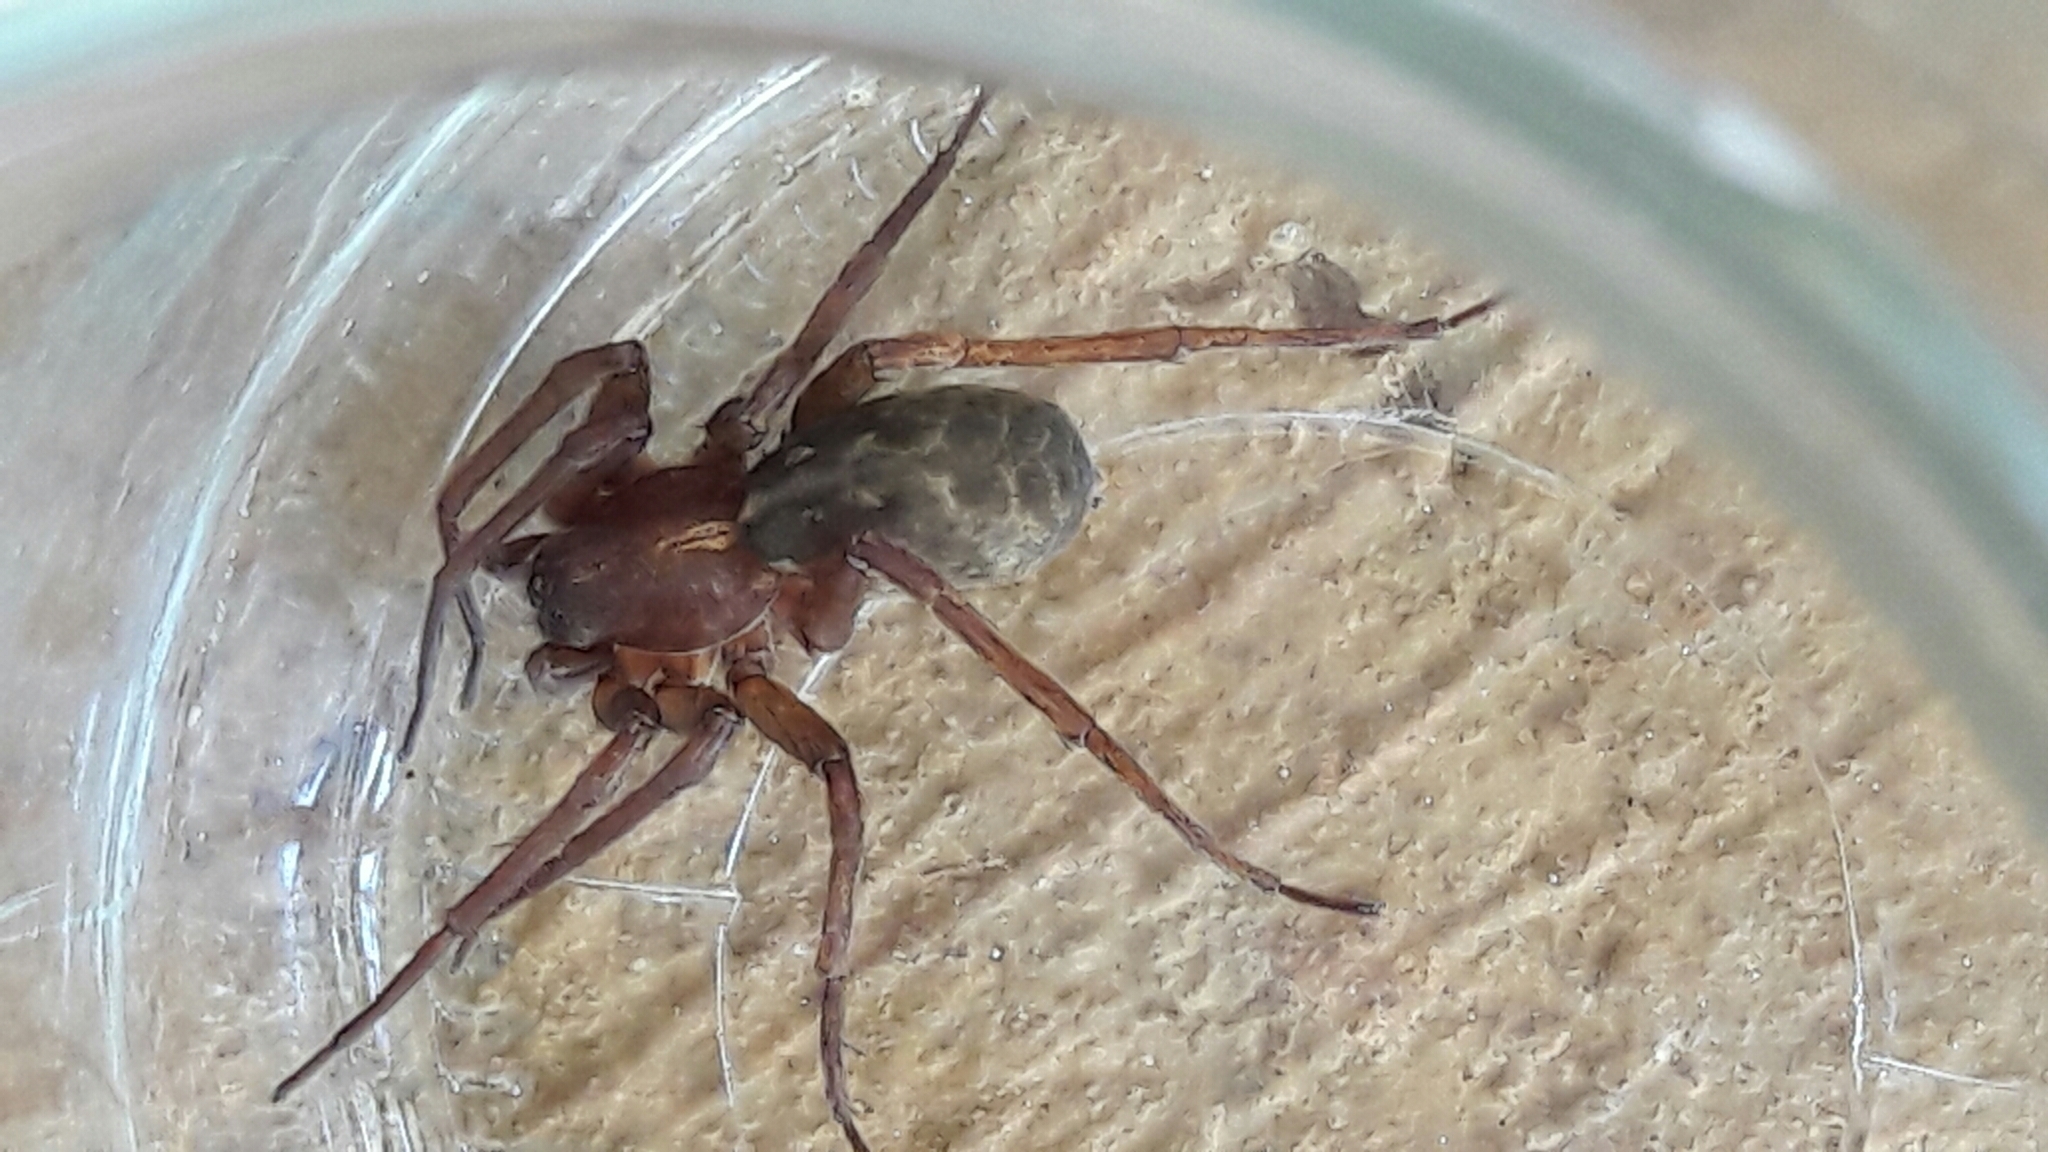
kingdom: Animalia
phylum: Arthropoda
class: Arachnida
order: Araneae
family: Ctenidae
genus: Isoctenus
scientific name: Isoctenus coxalis
